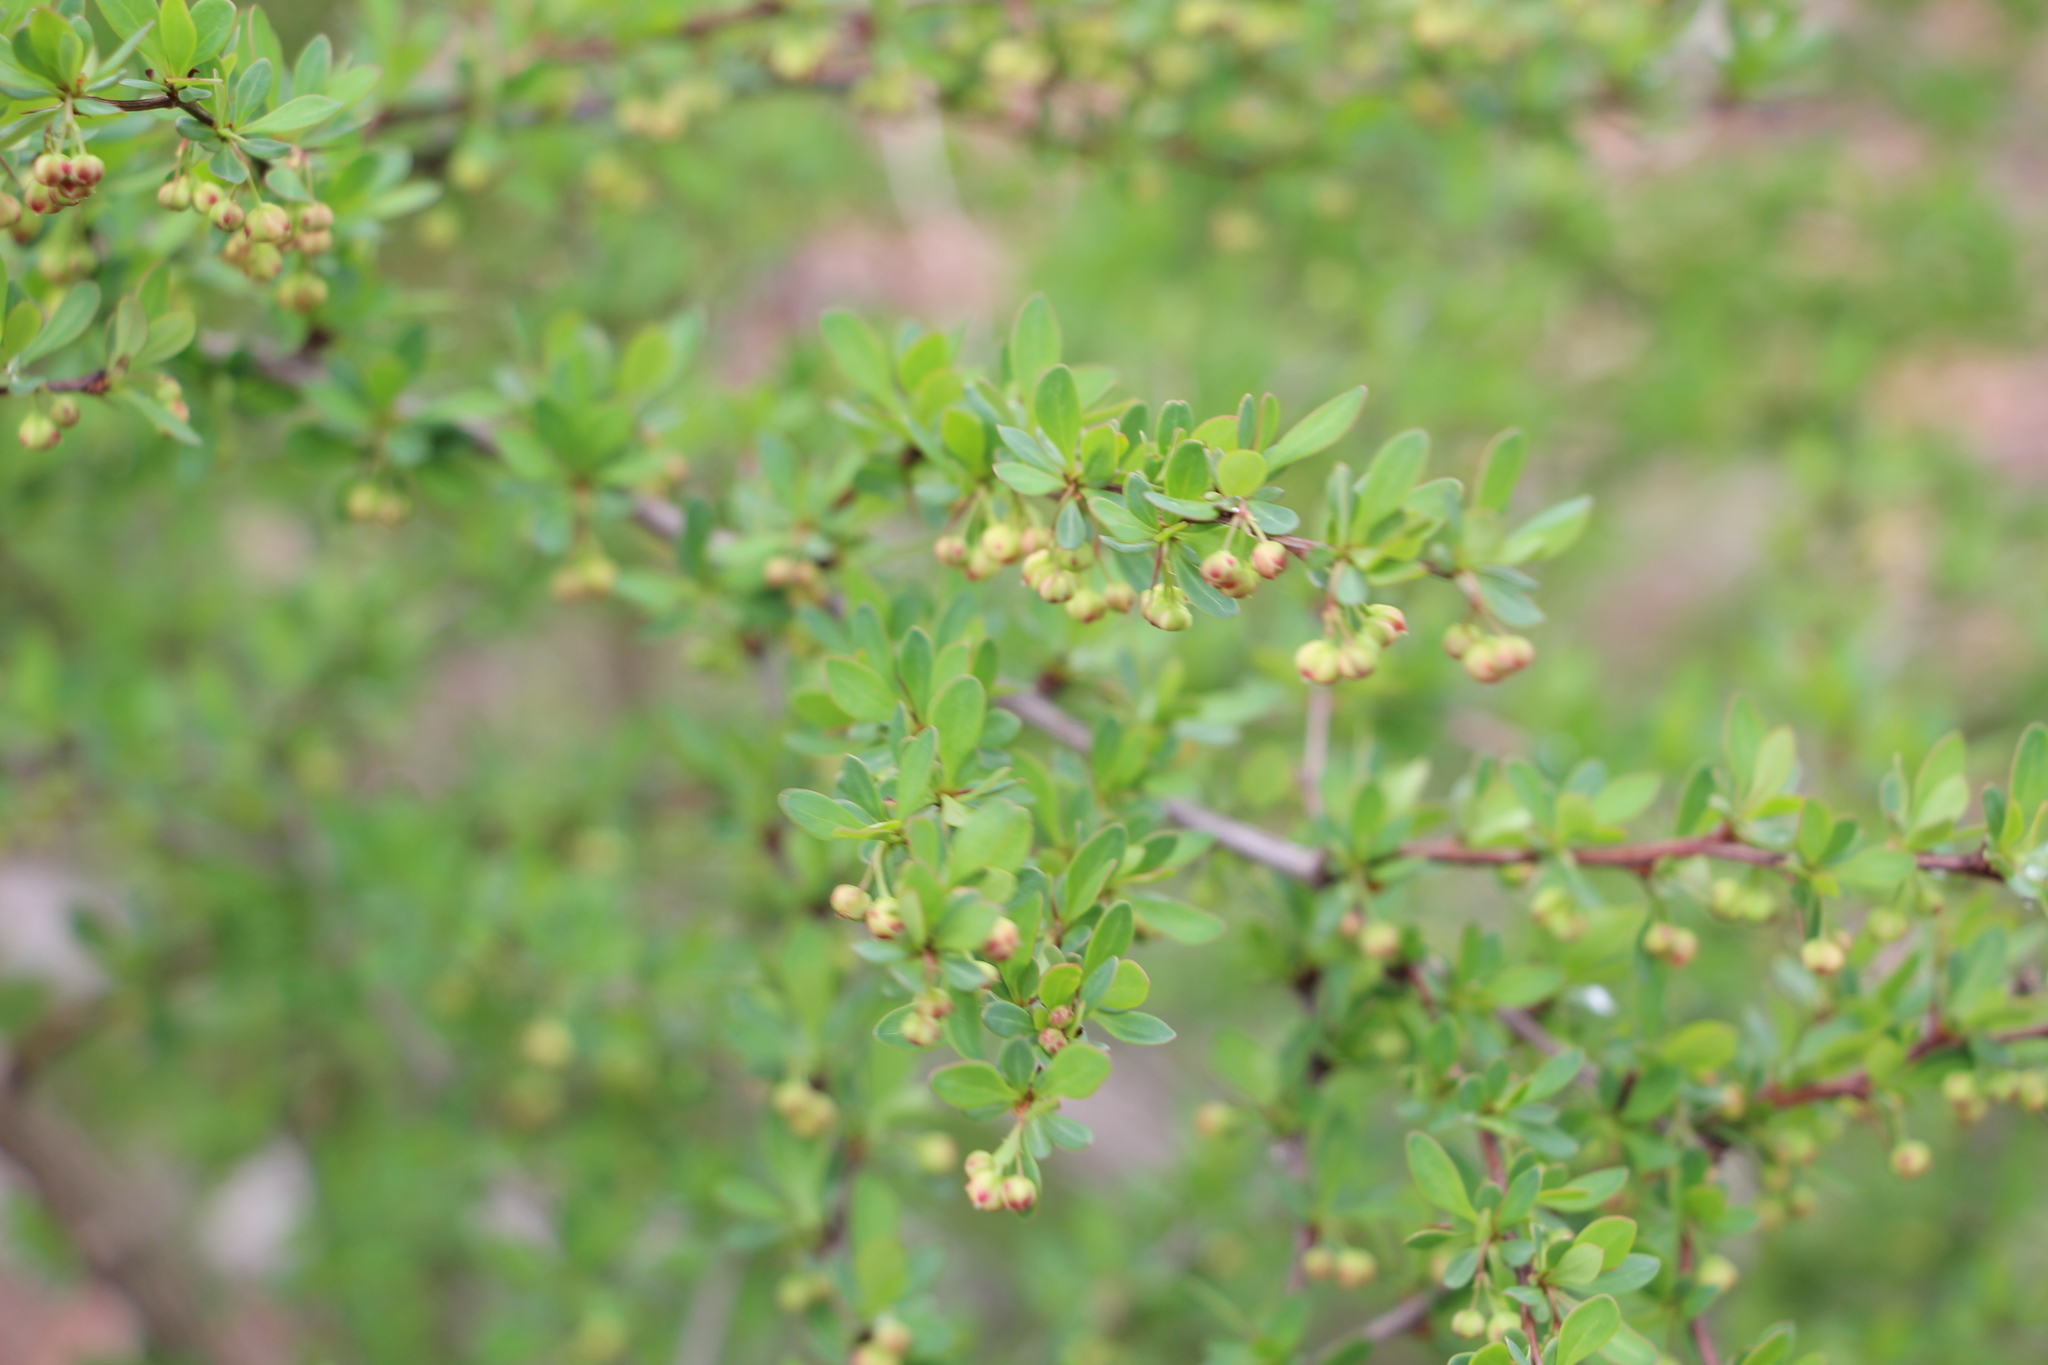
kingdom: Plantae
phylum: Tracheophyta
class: Magnoliopsida
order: Ranunculales
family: Berberidaceae
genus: Berberis
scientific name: Berberis thunbergii
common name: Japanese barberry
